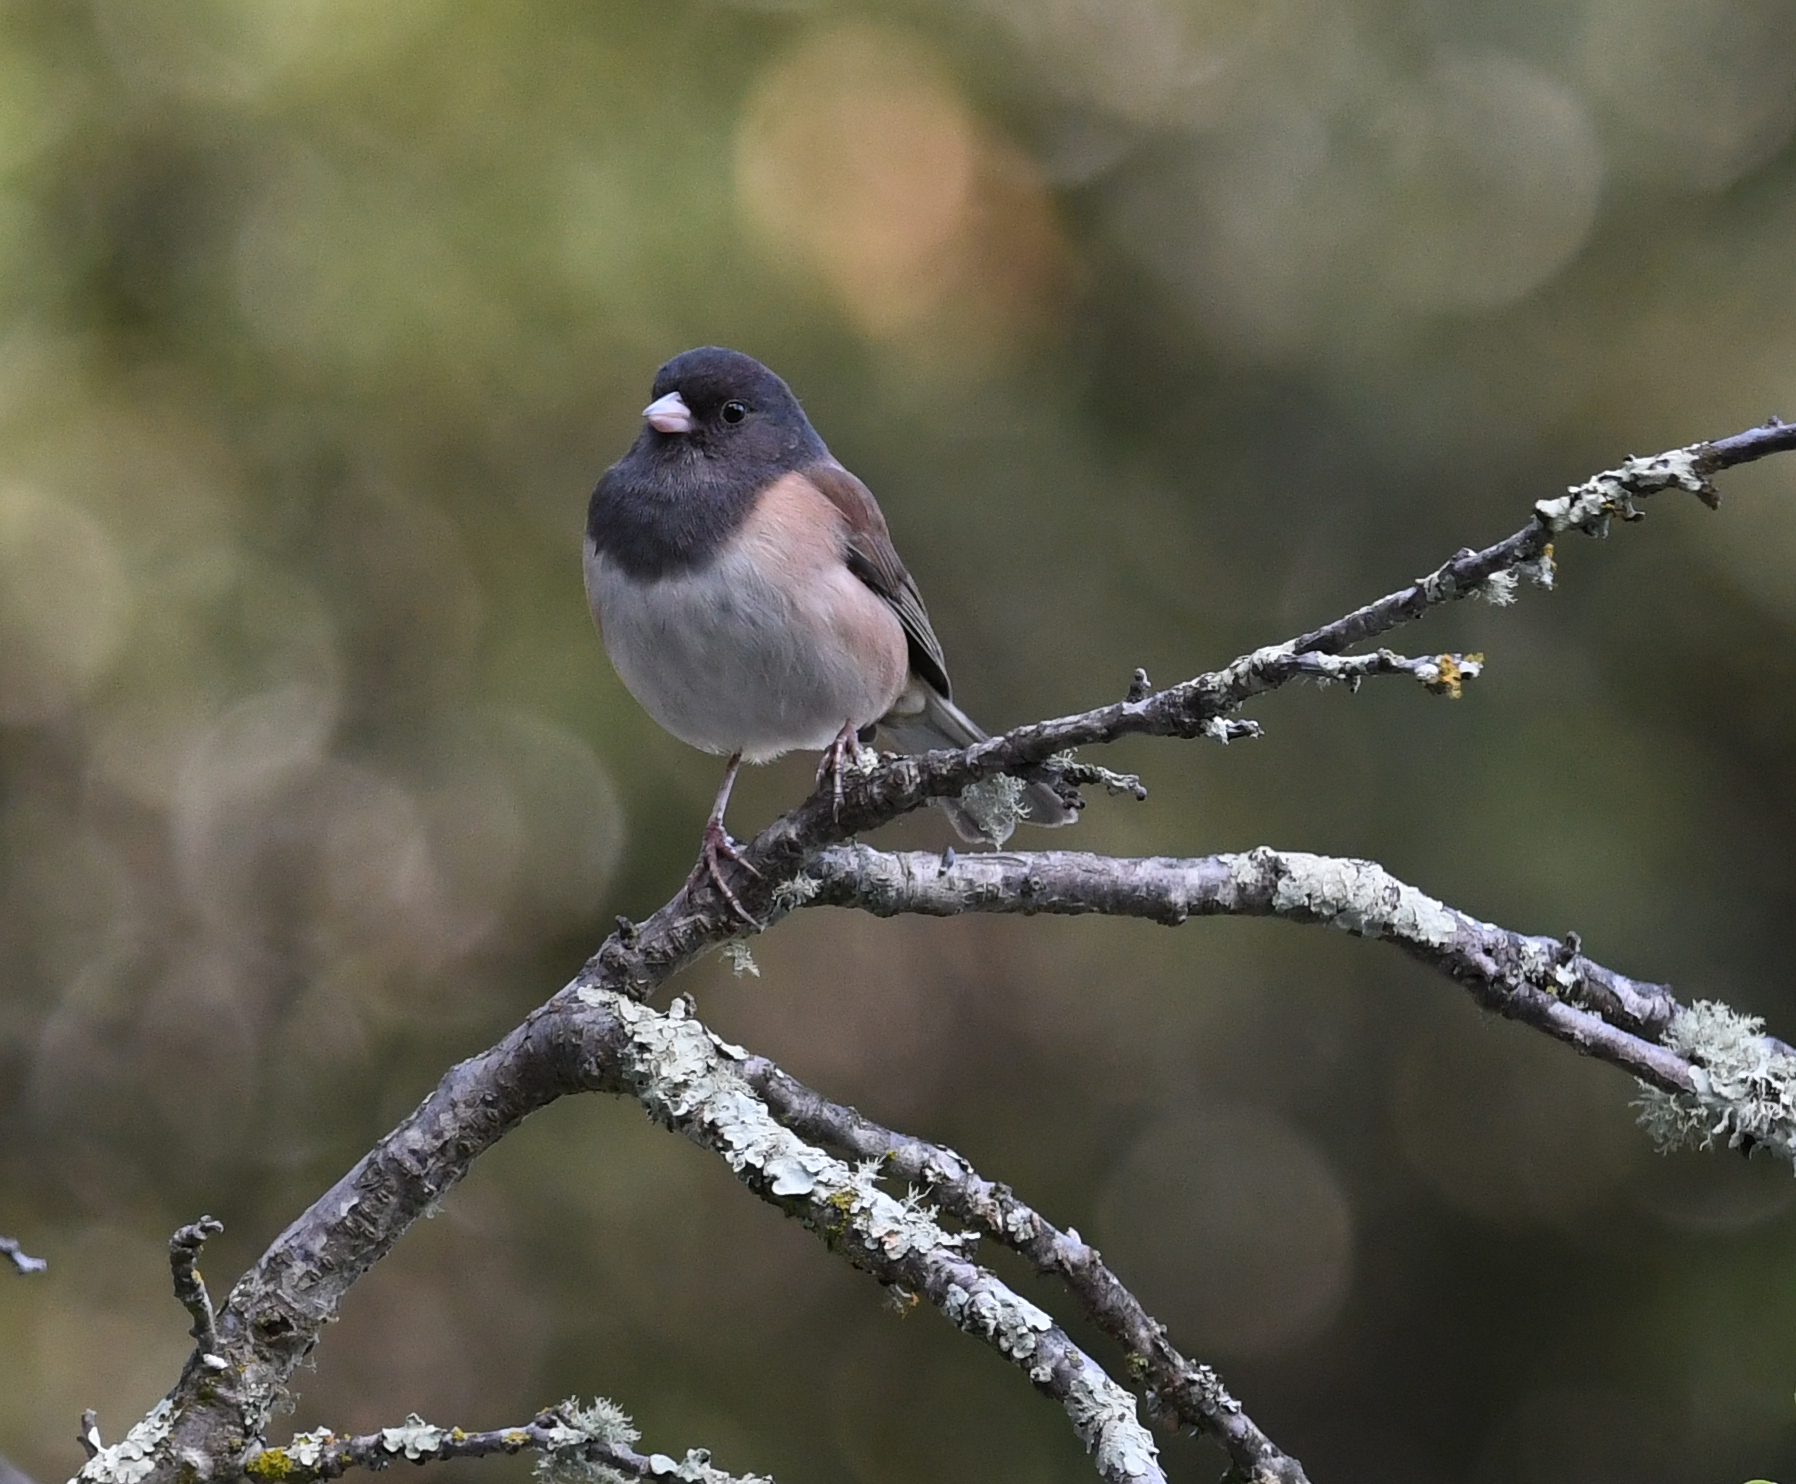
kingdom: Animalia
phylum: Chordata
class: Aves
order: Passeriformes
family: Passerellidae
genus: Junco
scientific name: Junco hyemalis
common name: Dark-eyed junco
